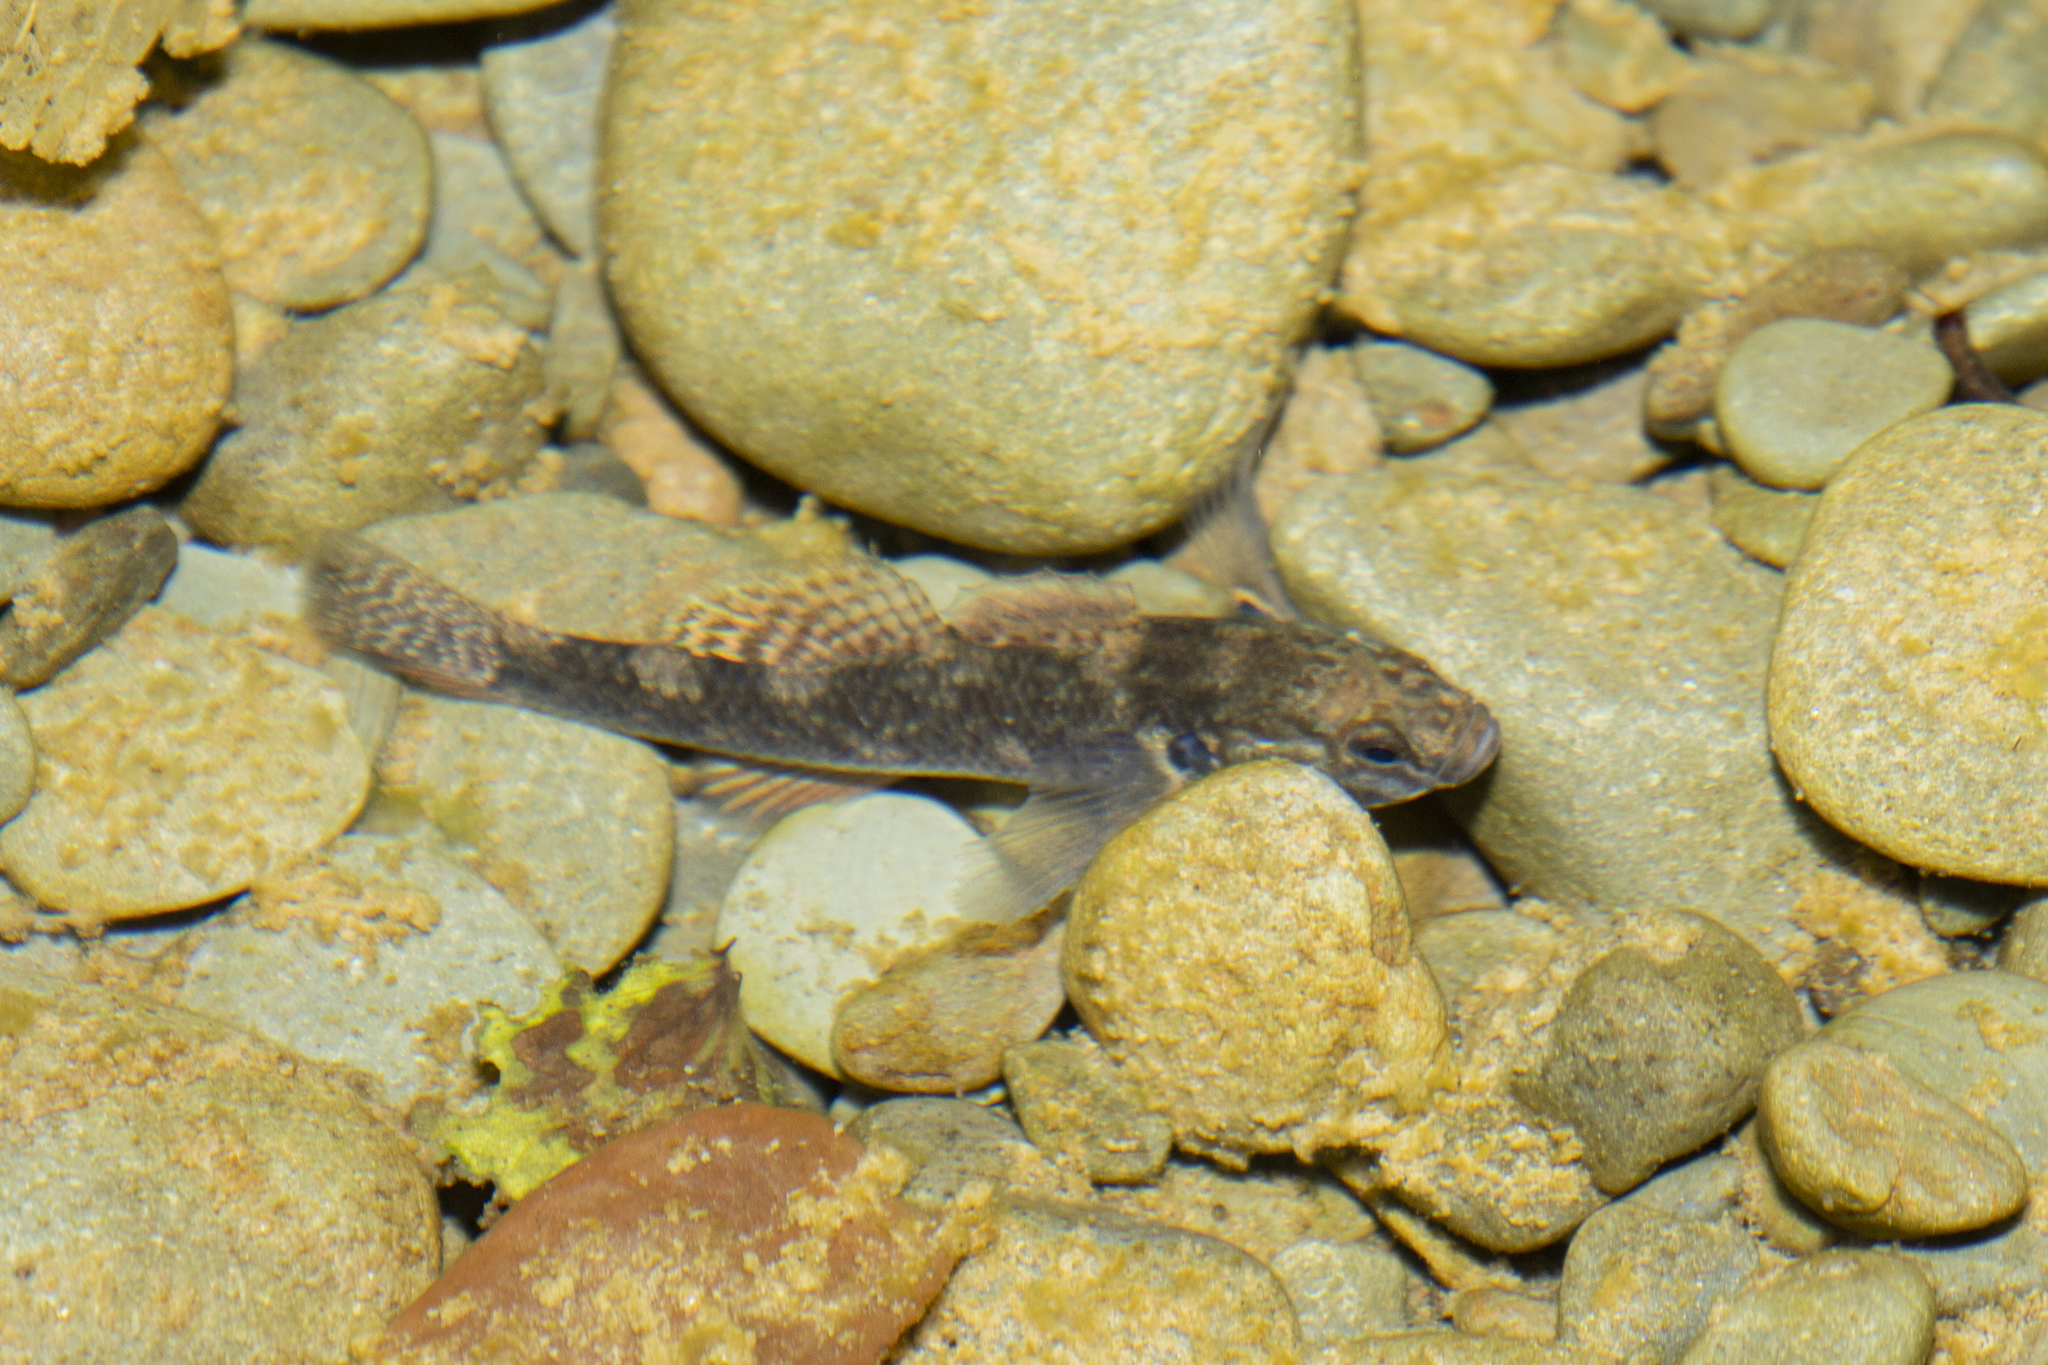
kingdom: Animalia
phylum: Chordata
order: Perciformes
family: Eleotridae
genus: Gobiomorphus
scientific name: Gobiomorphus huttoni
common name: Redfin bully
